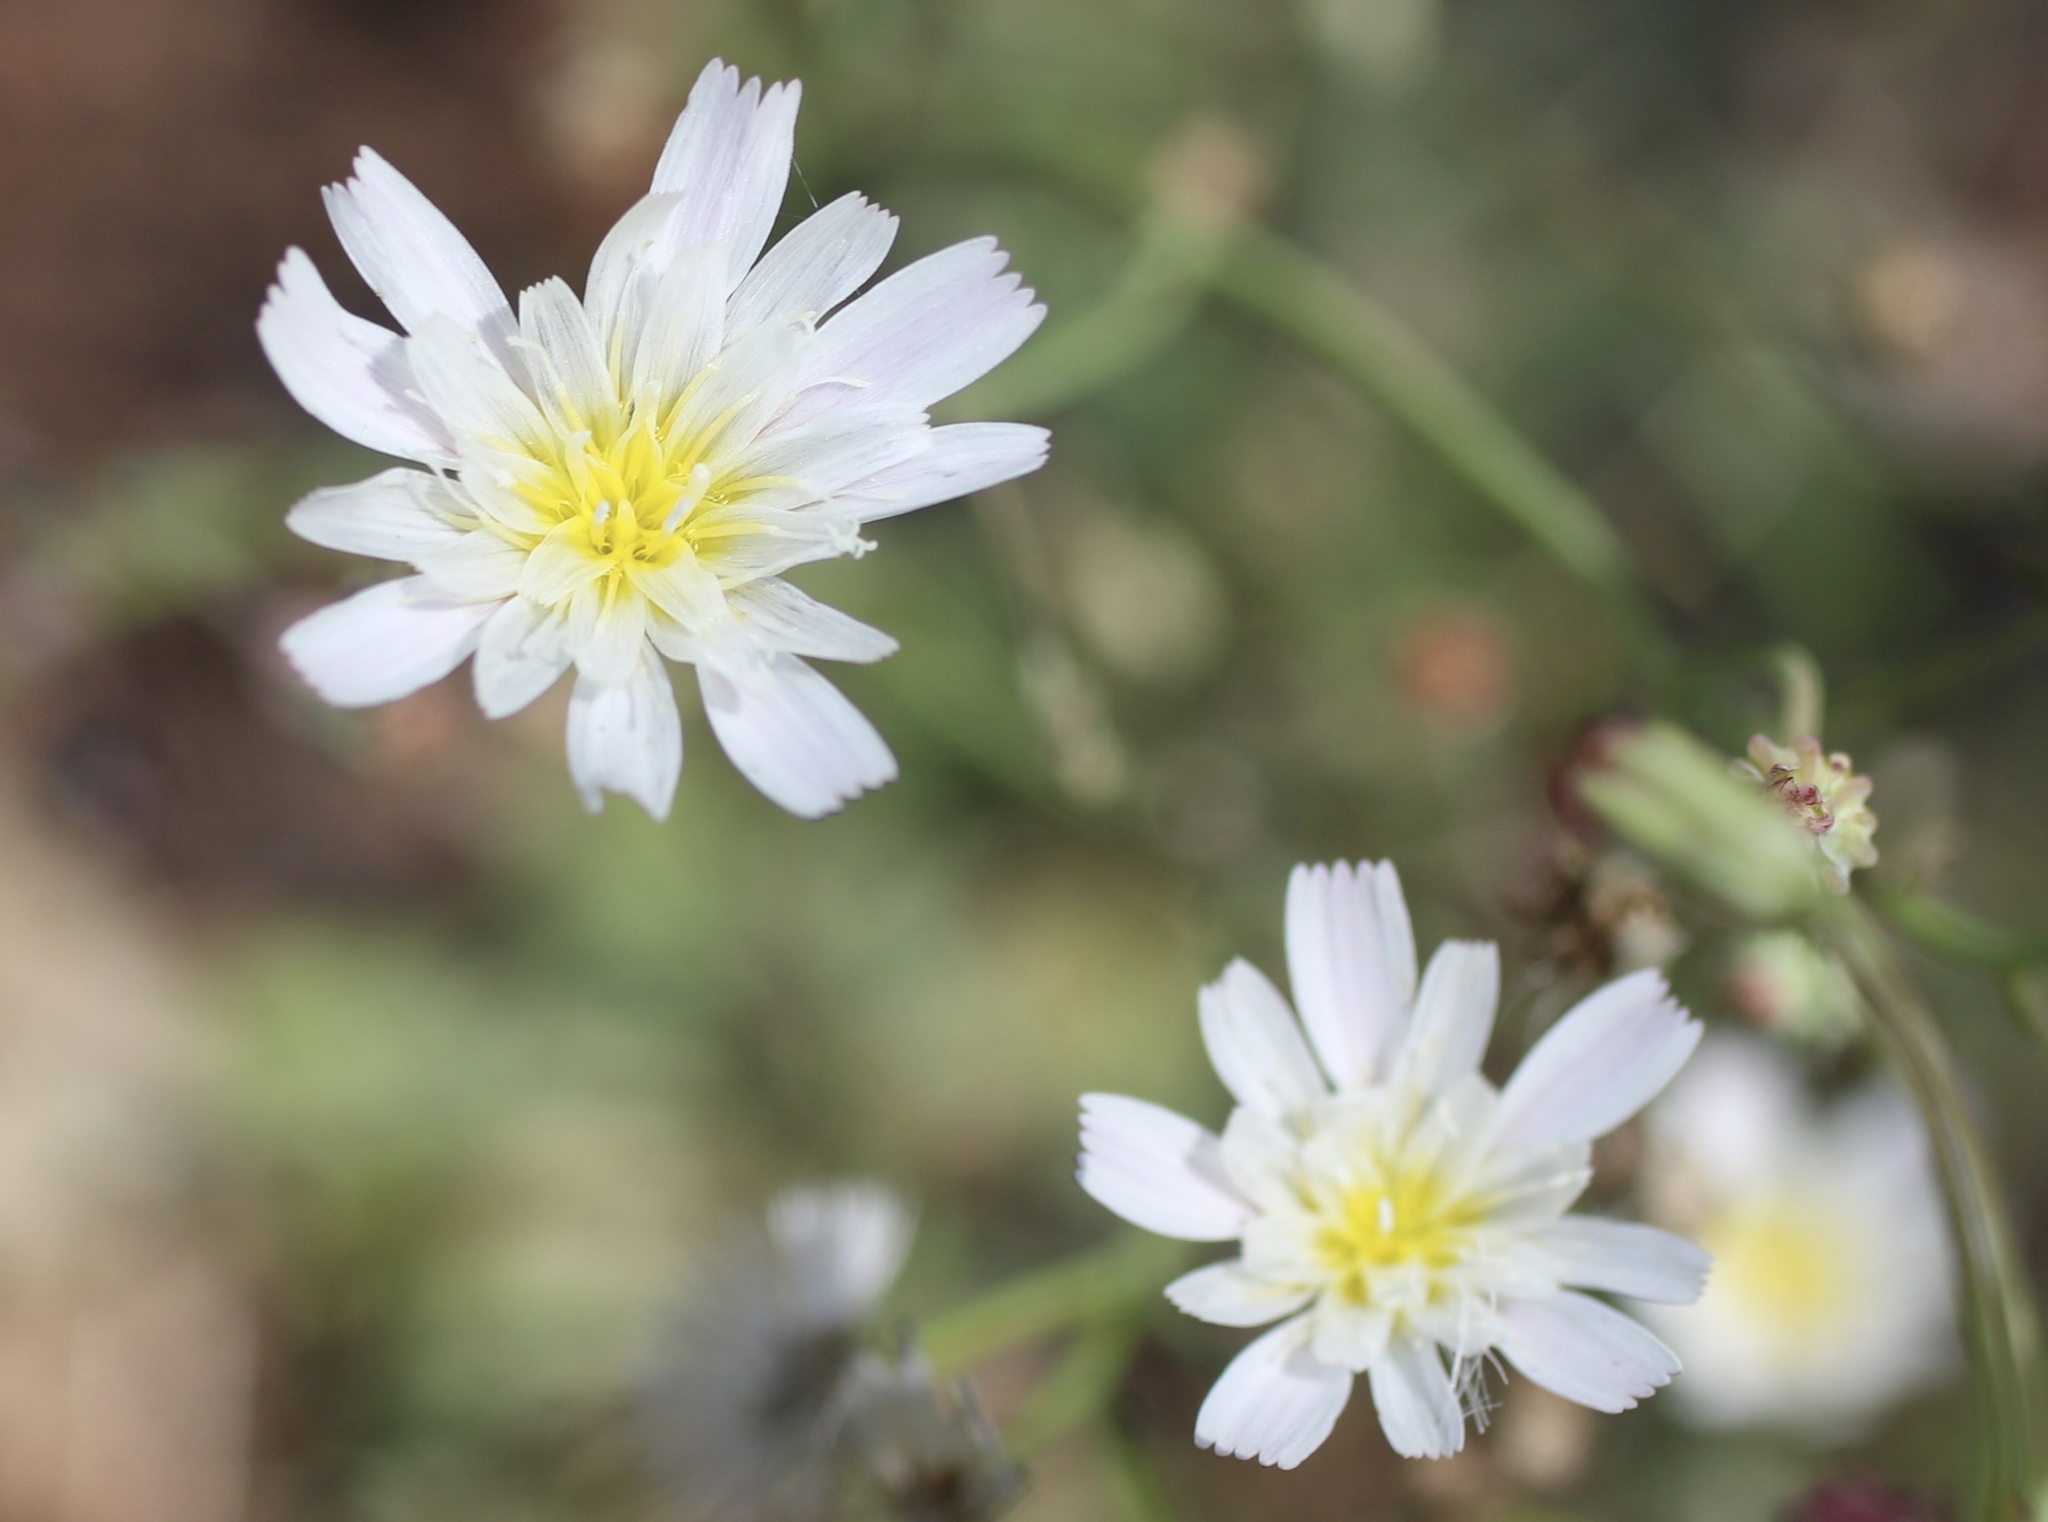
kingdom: Plantae
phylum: Tracheophyta
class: Magnoliopsida
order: Asterales
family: Asteraceae
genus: Rafinesquia
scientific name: Rafinesquia californica
